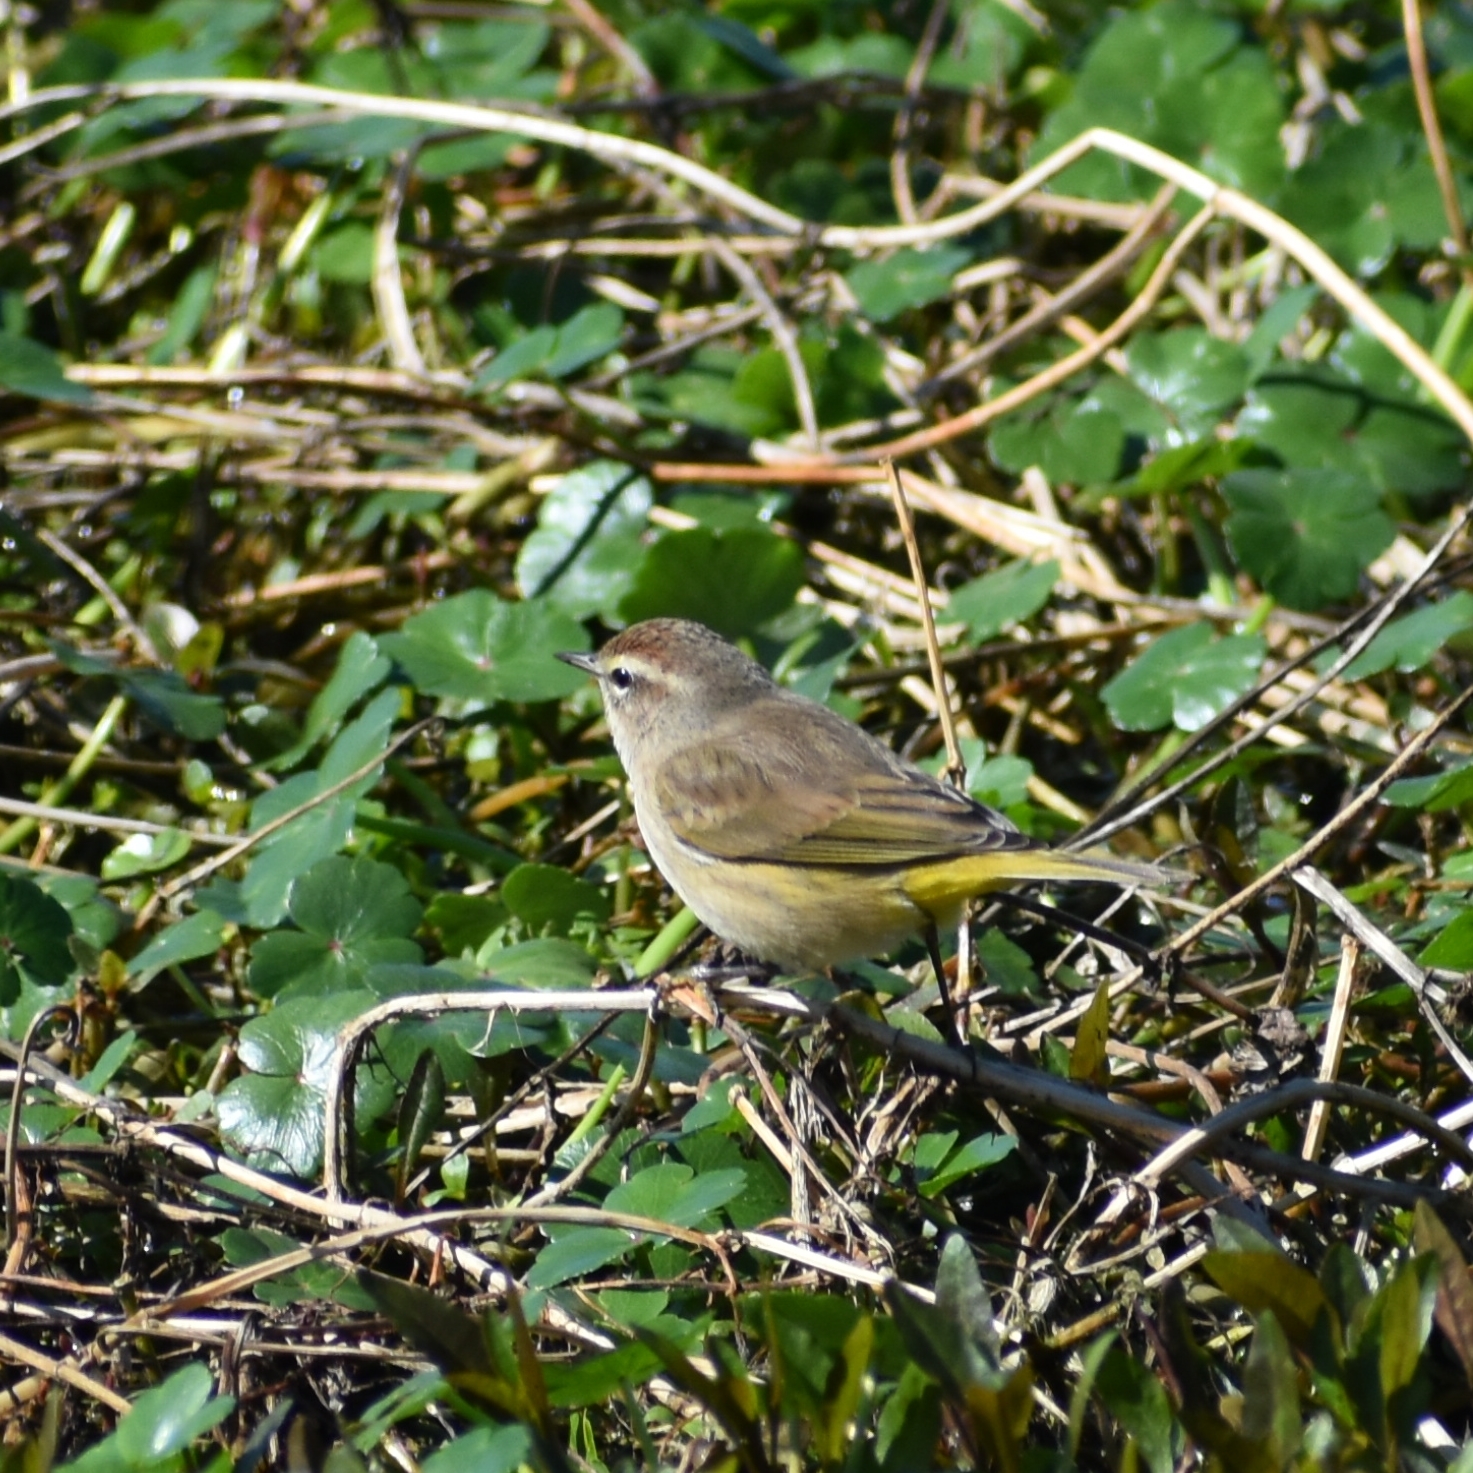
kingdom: Animalia
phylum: Chordata
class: Aves
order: Passeriformes
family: Parulidae
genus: Setophaga
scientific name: Setophaga palmarum
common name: Palm warbler
